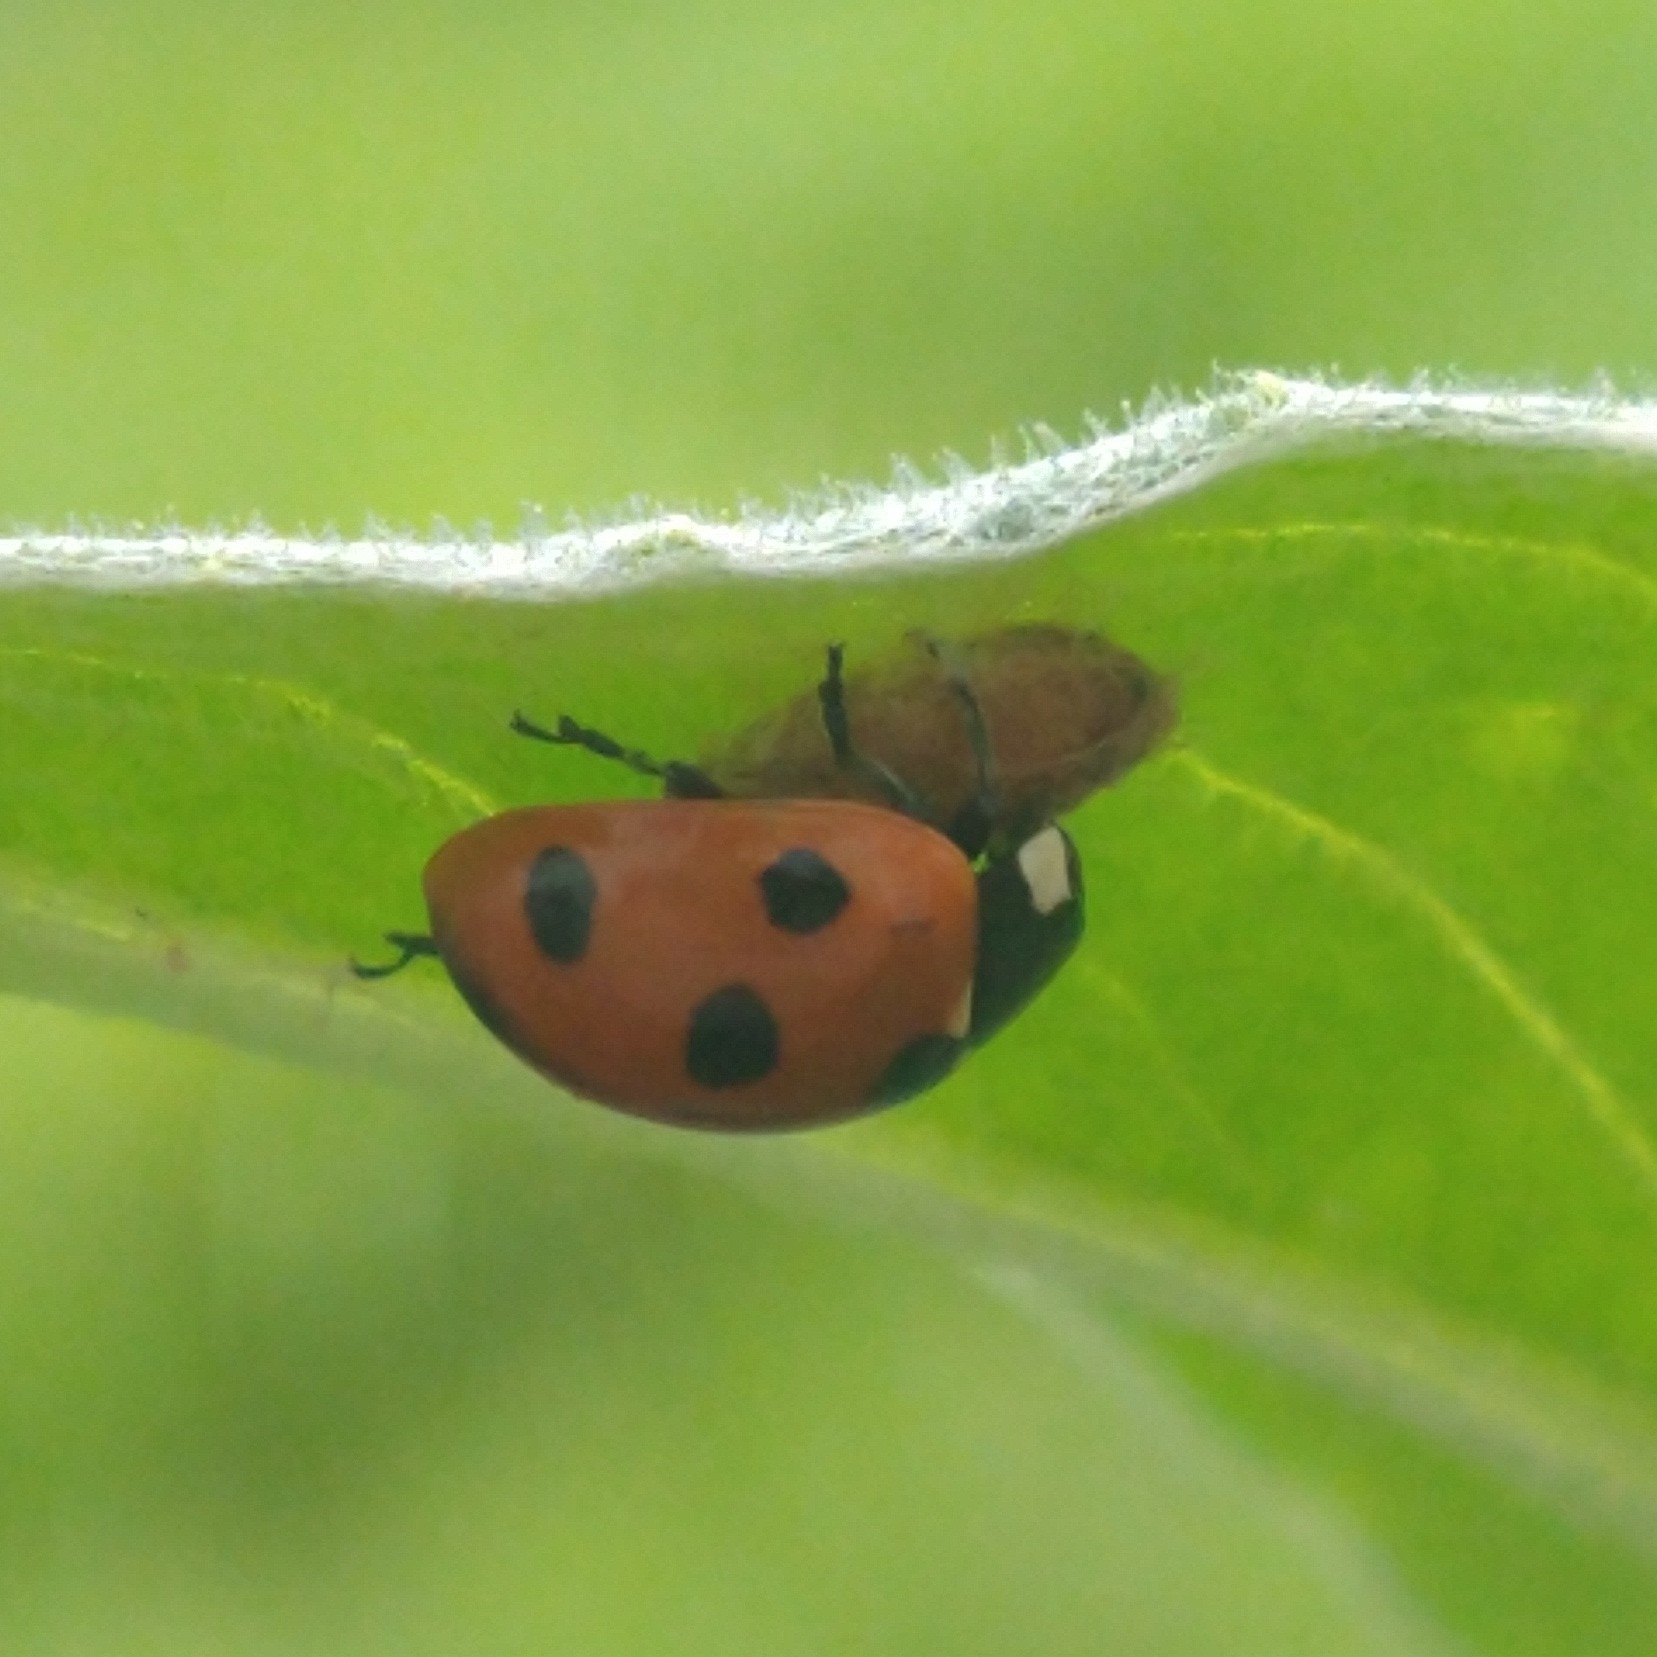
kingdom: Animalia
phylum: Arthropoda
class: Insecta
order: Coleoptera
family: Coccinellidae
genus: Coccinella
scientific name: Coccinella septempunctata
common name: Sevenspotted lady beetle
